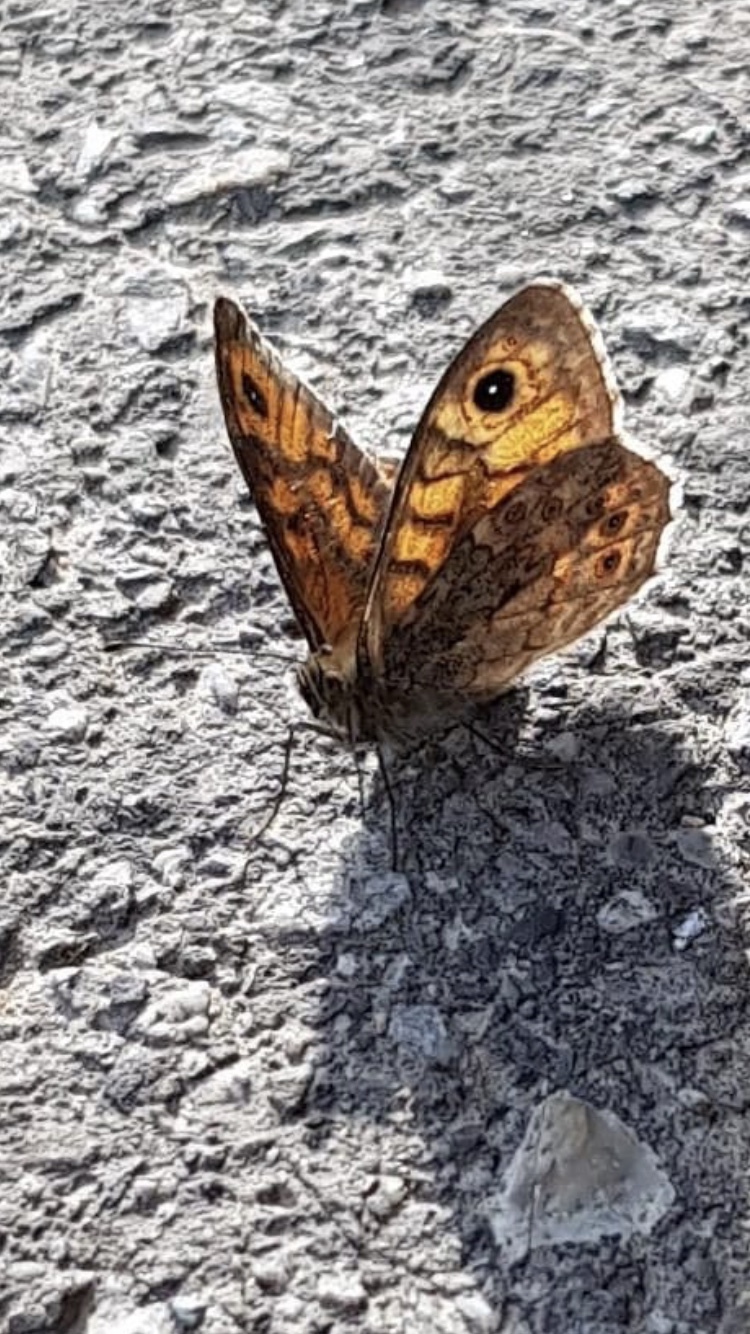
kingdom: Animalia
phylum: Arthropoda
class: Insecta
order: Lepidoptera
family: Nymphalidae
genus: Pararge
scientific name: Pararge Lasiommata megera
